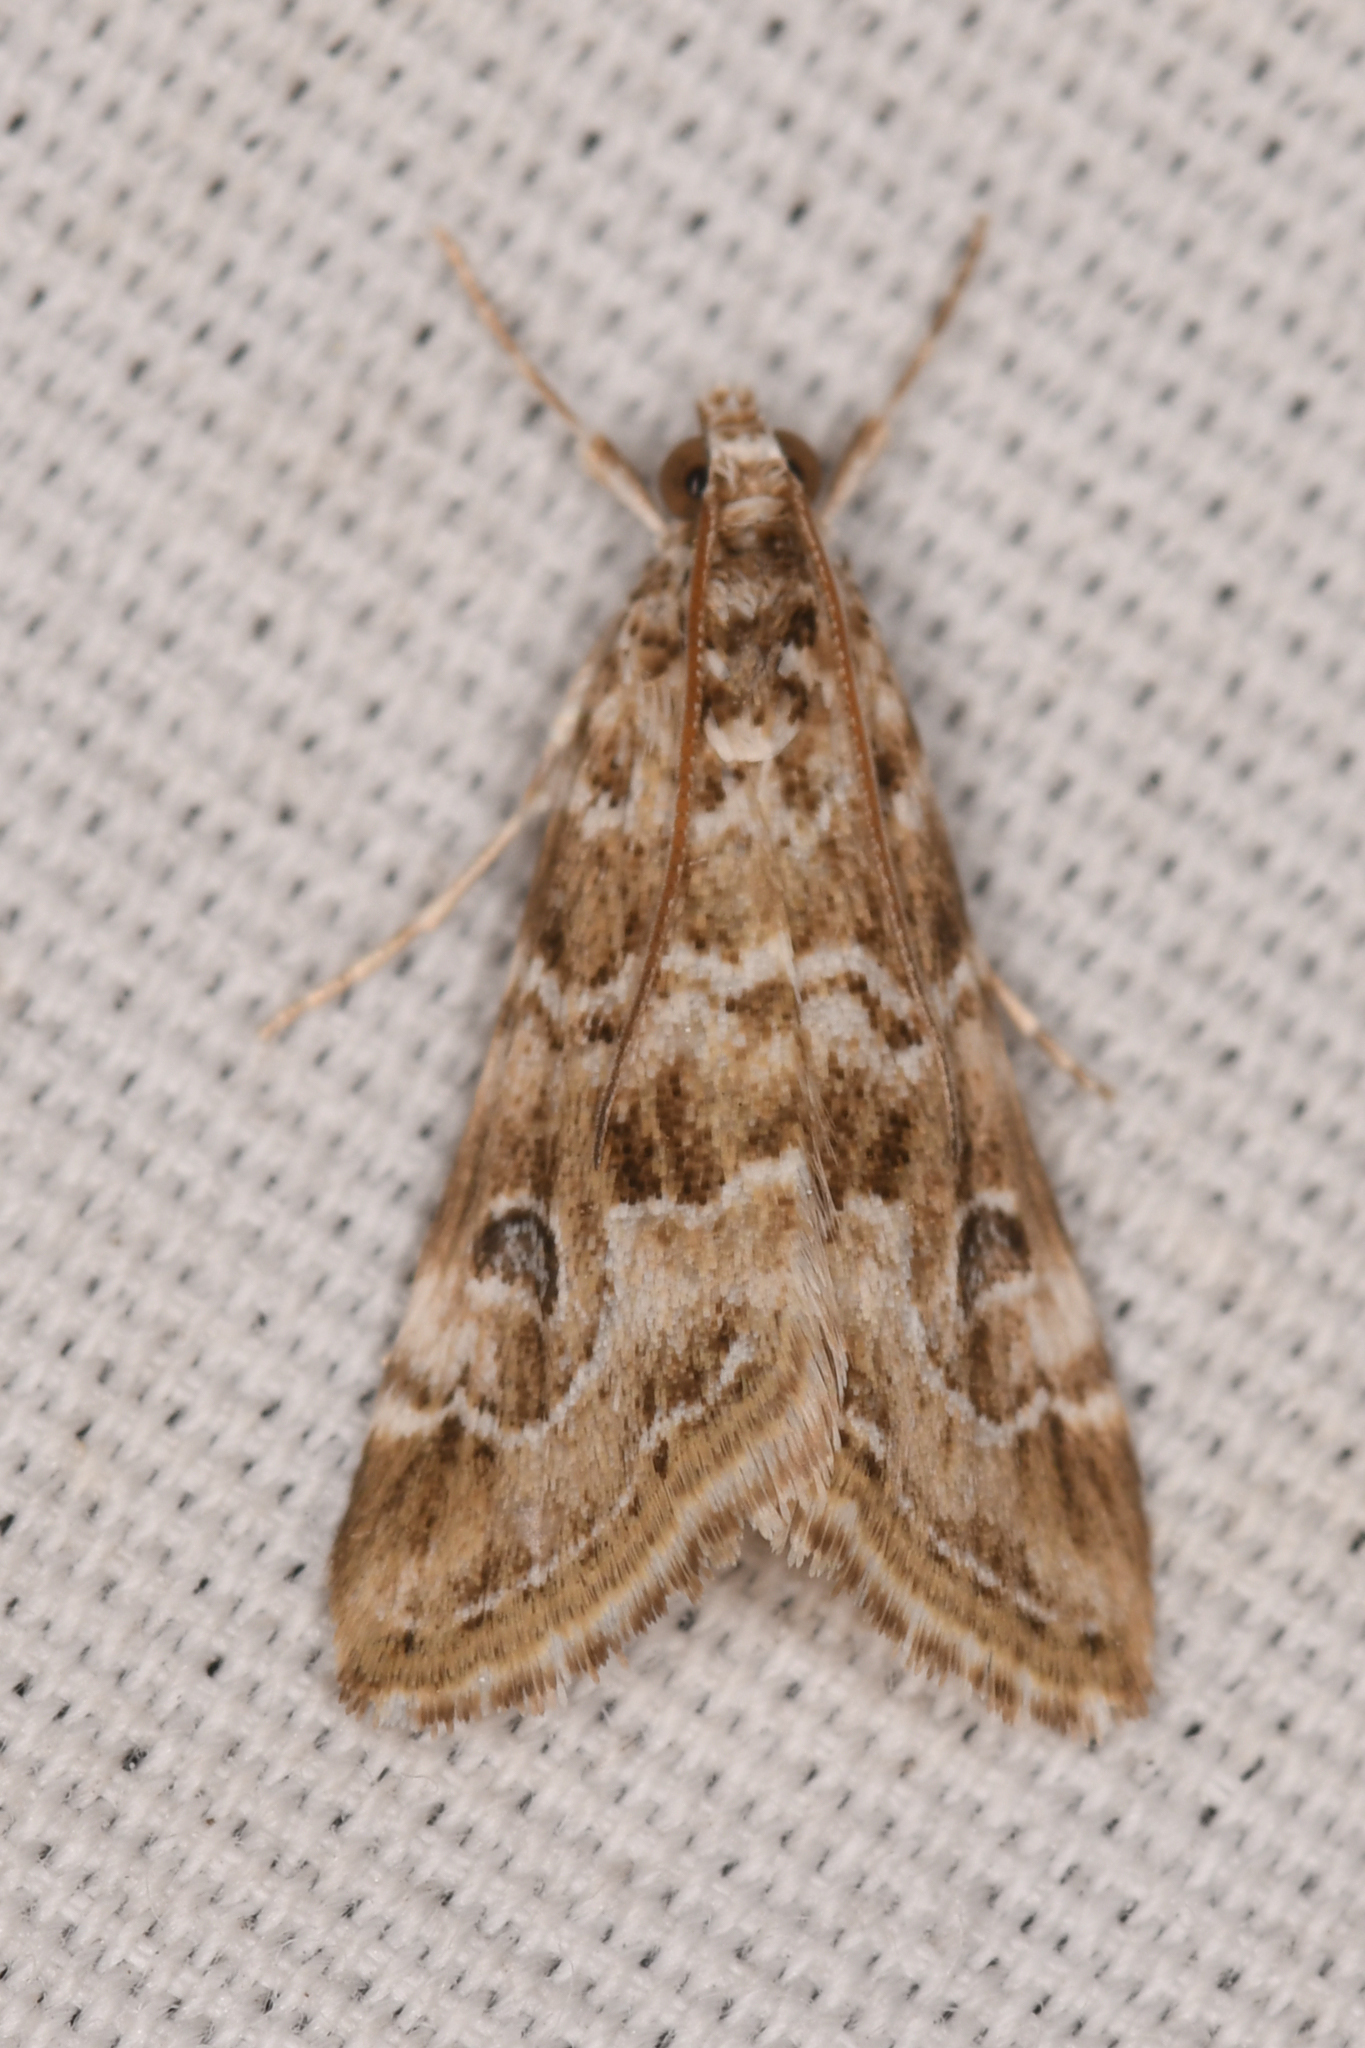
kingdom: Animalia
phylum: Arthropoda
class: Insecta
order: Lepidoptera
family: Crambidae
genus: Hellula
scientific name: Hellula rogatalis
